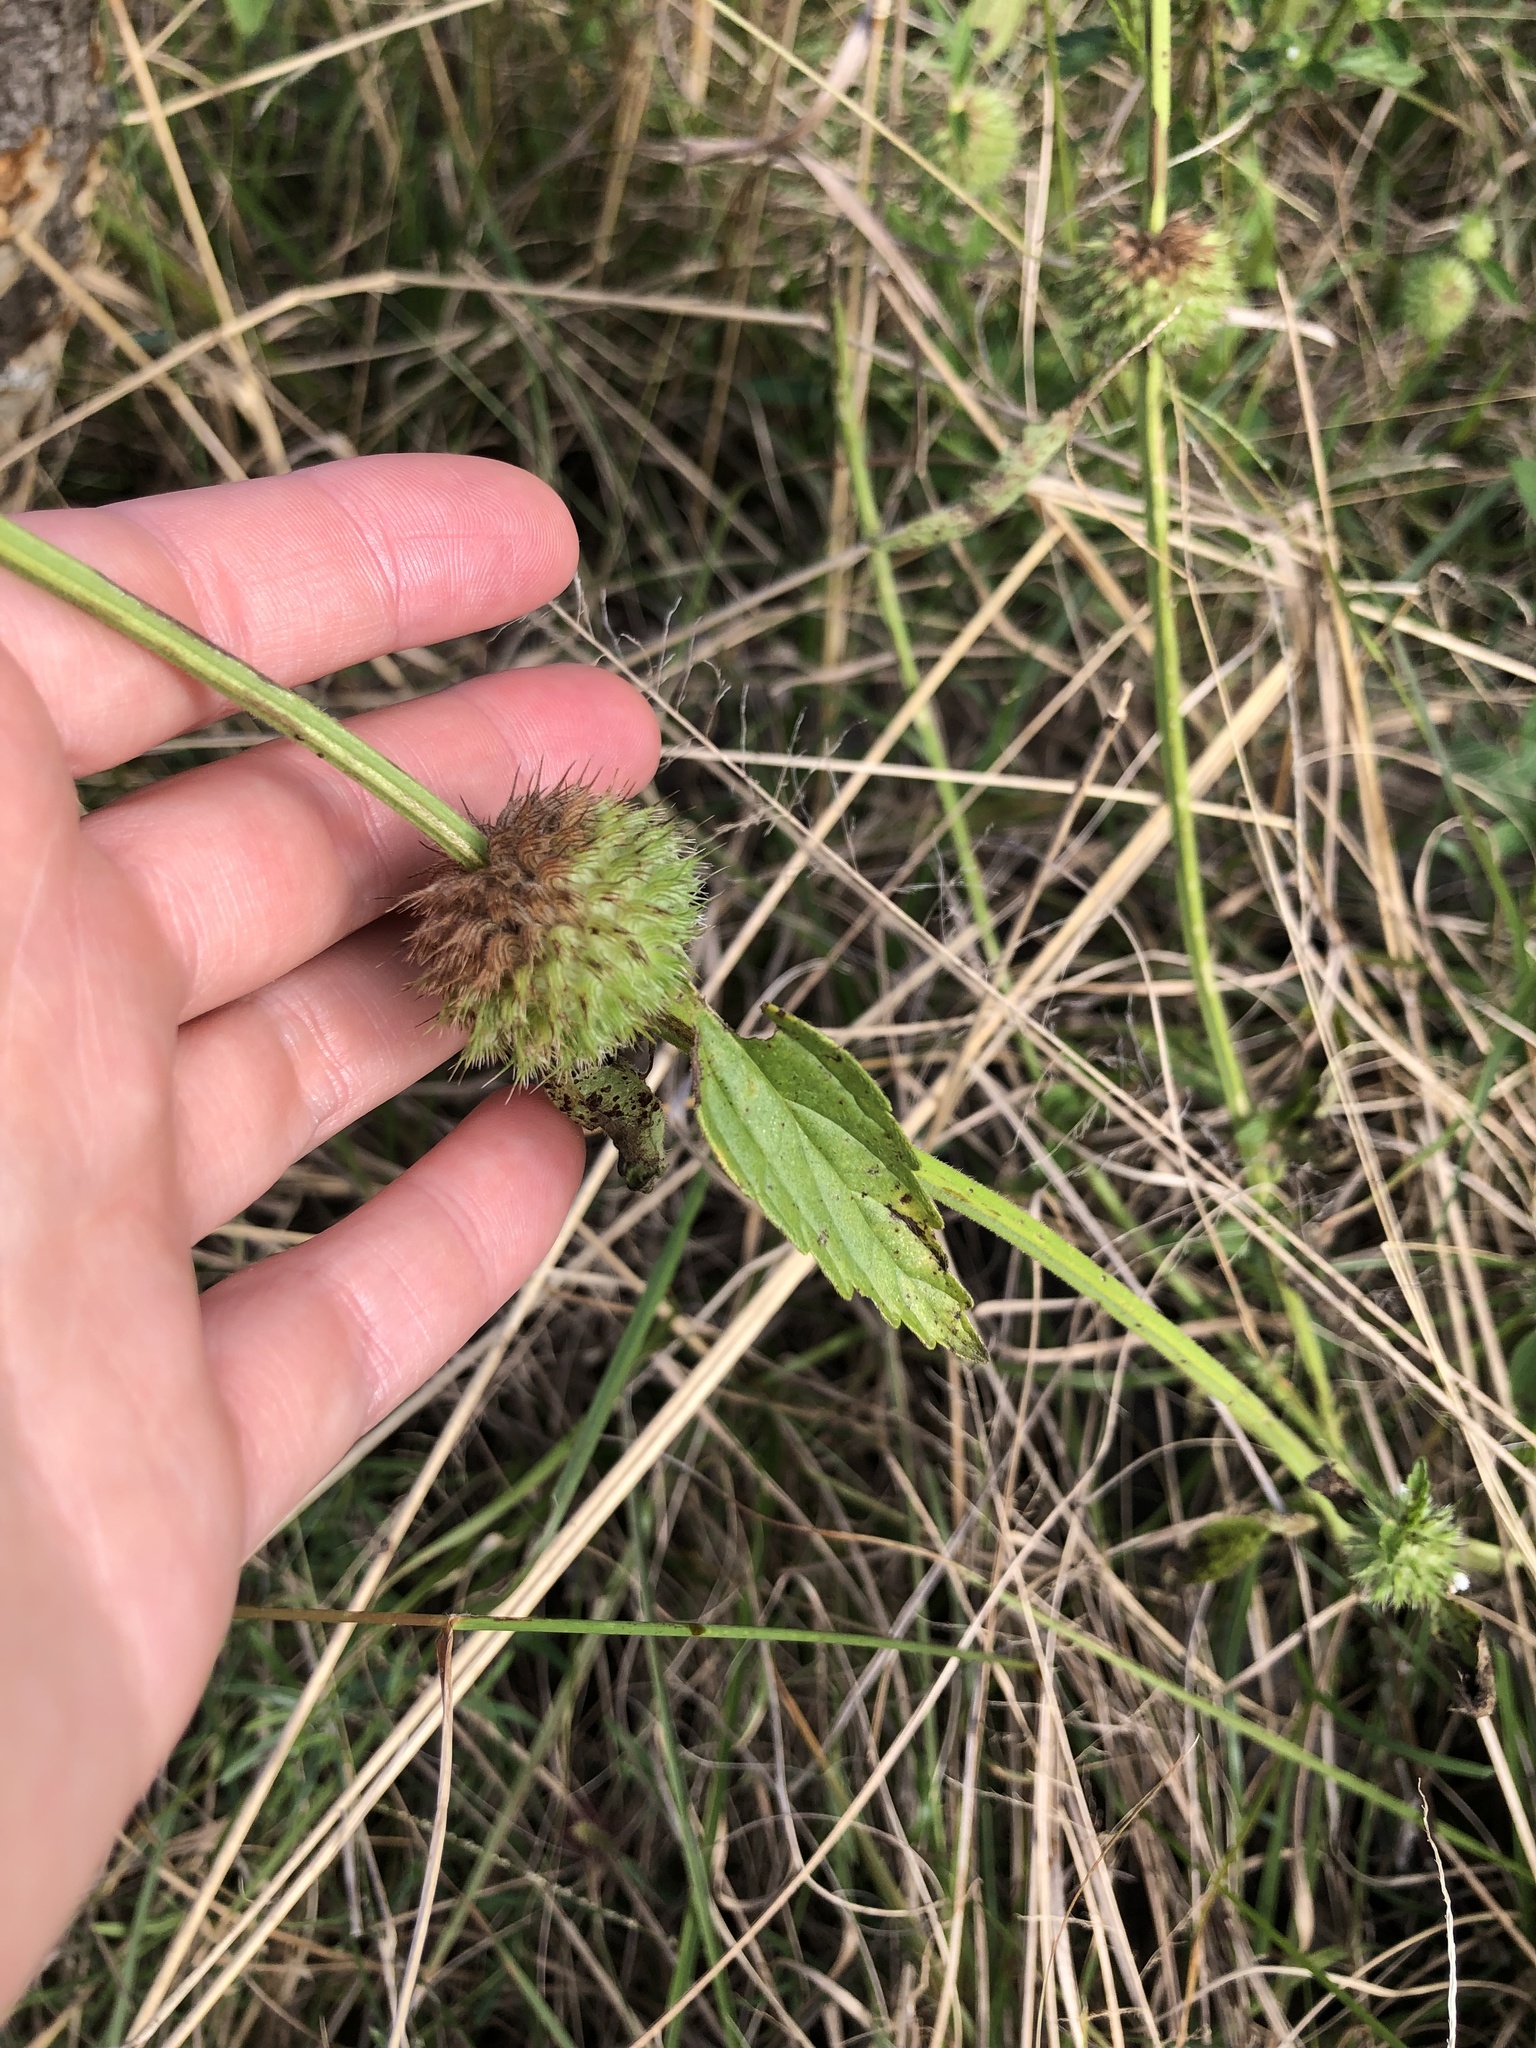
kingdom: Plantae
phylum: Tracheophyta
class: Magnoliopsida
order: Gentianales
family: Rubiaceae
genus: Richardia
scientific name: Richardia brasiliensis
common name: Tropical mexican clover
